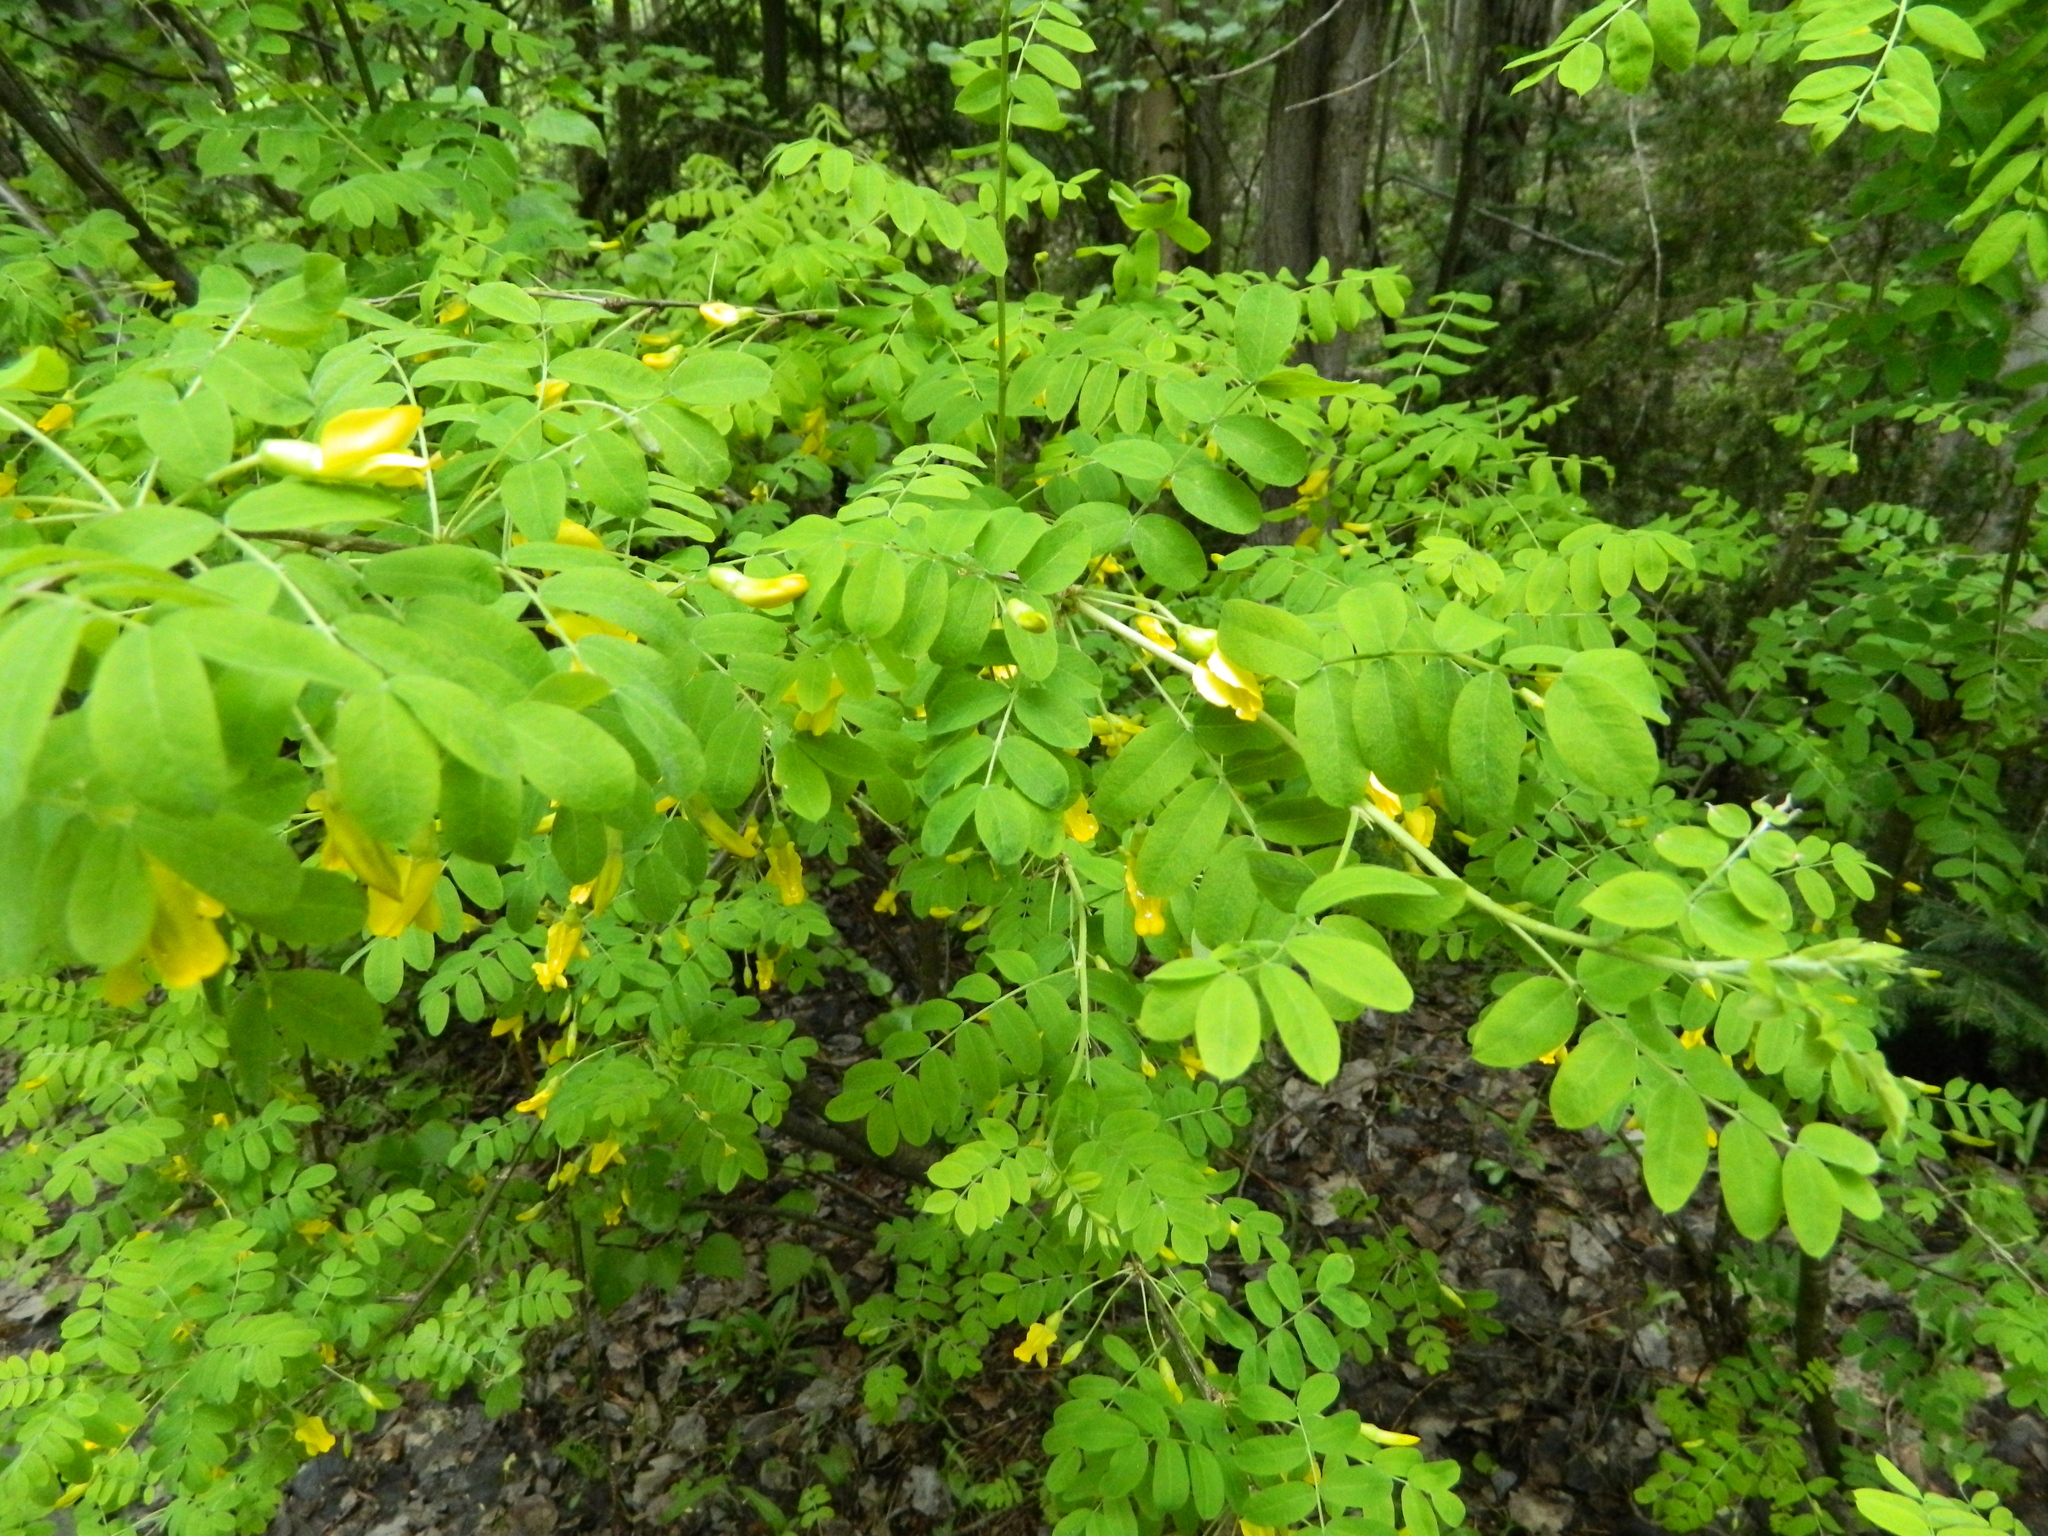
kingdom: Plantae
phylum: Tracheophyta
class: Magnoliopsida
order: Fabales
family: Fabaceae
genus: Caragana
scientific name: Caragana arborescens
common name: Siberian peashrub
